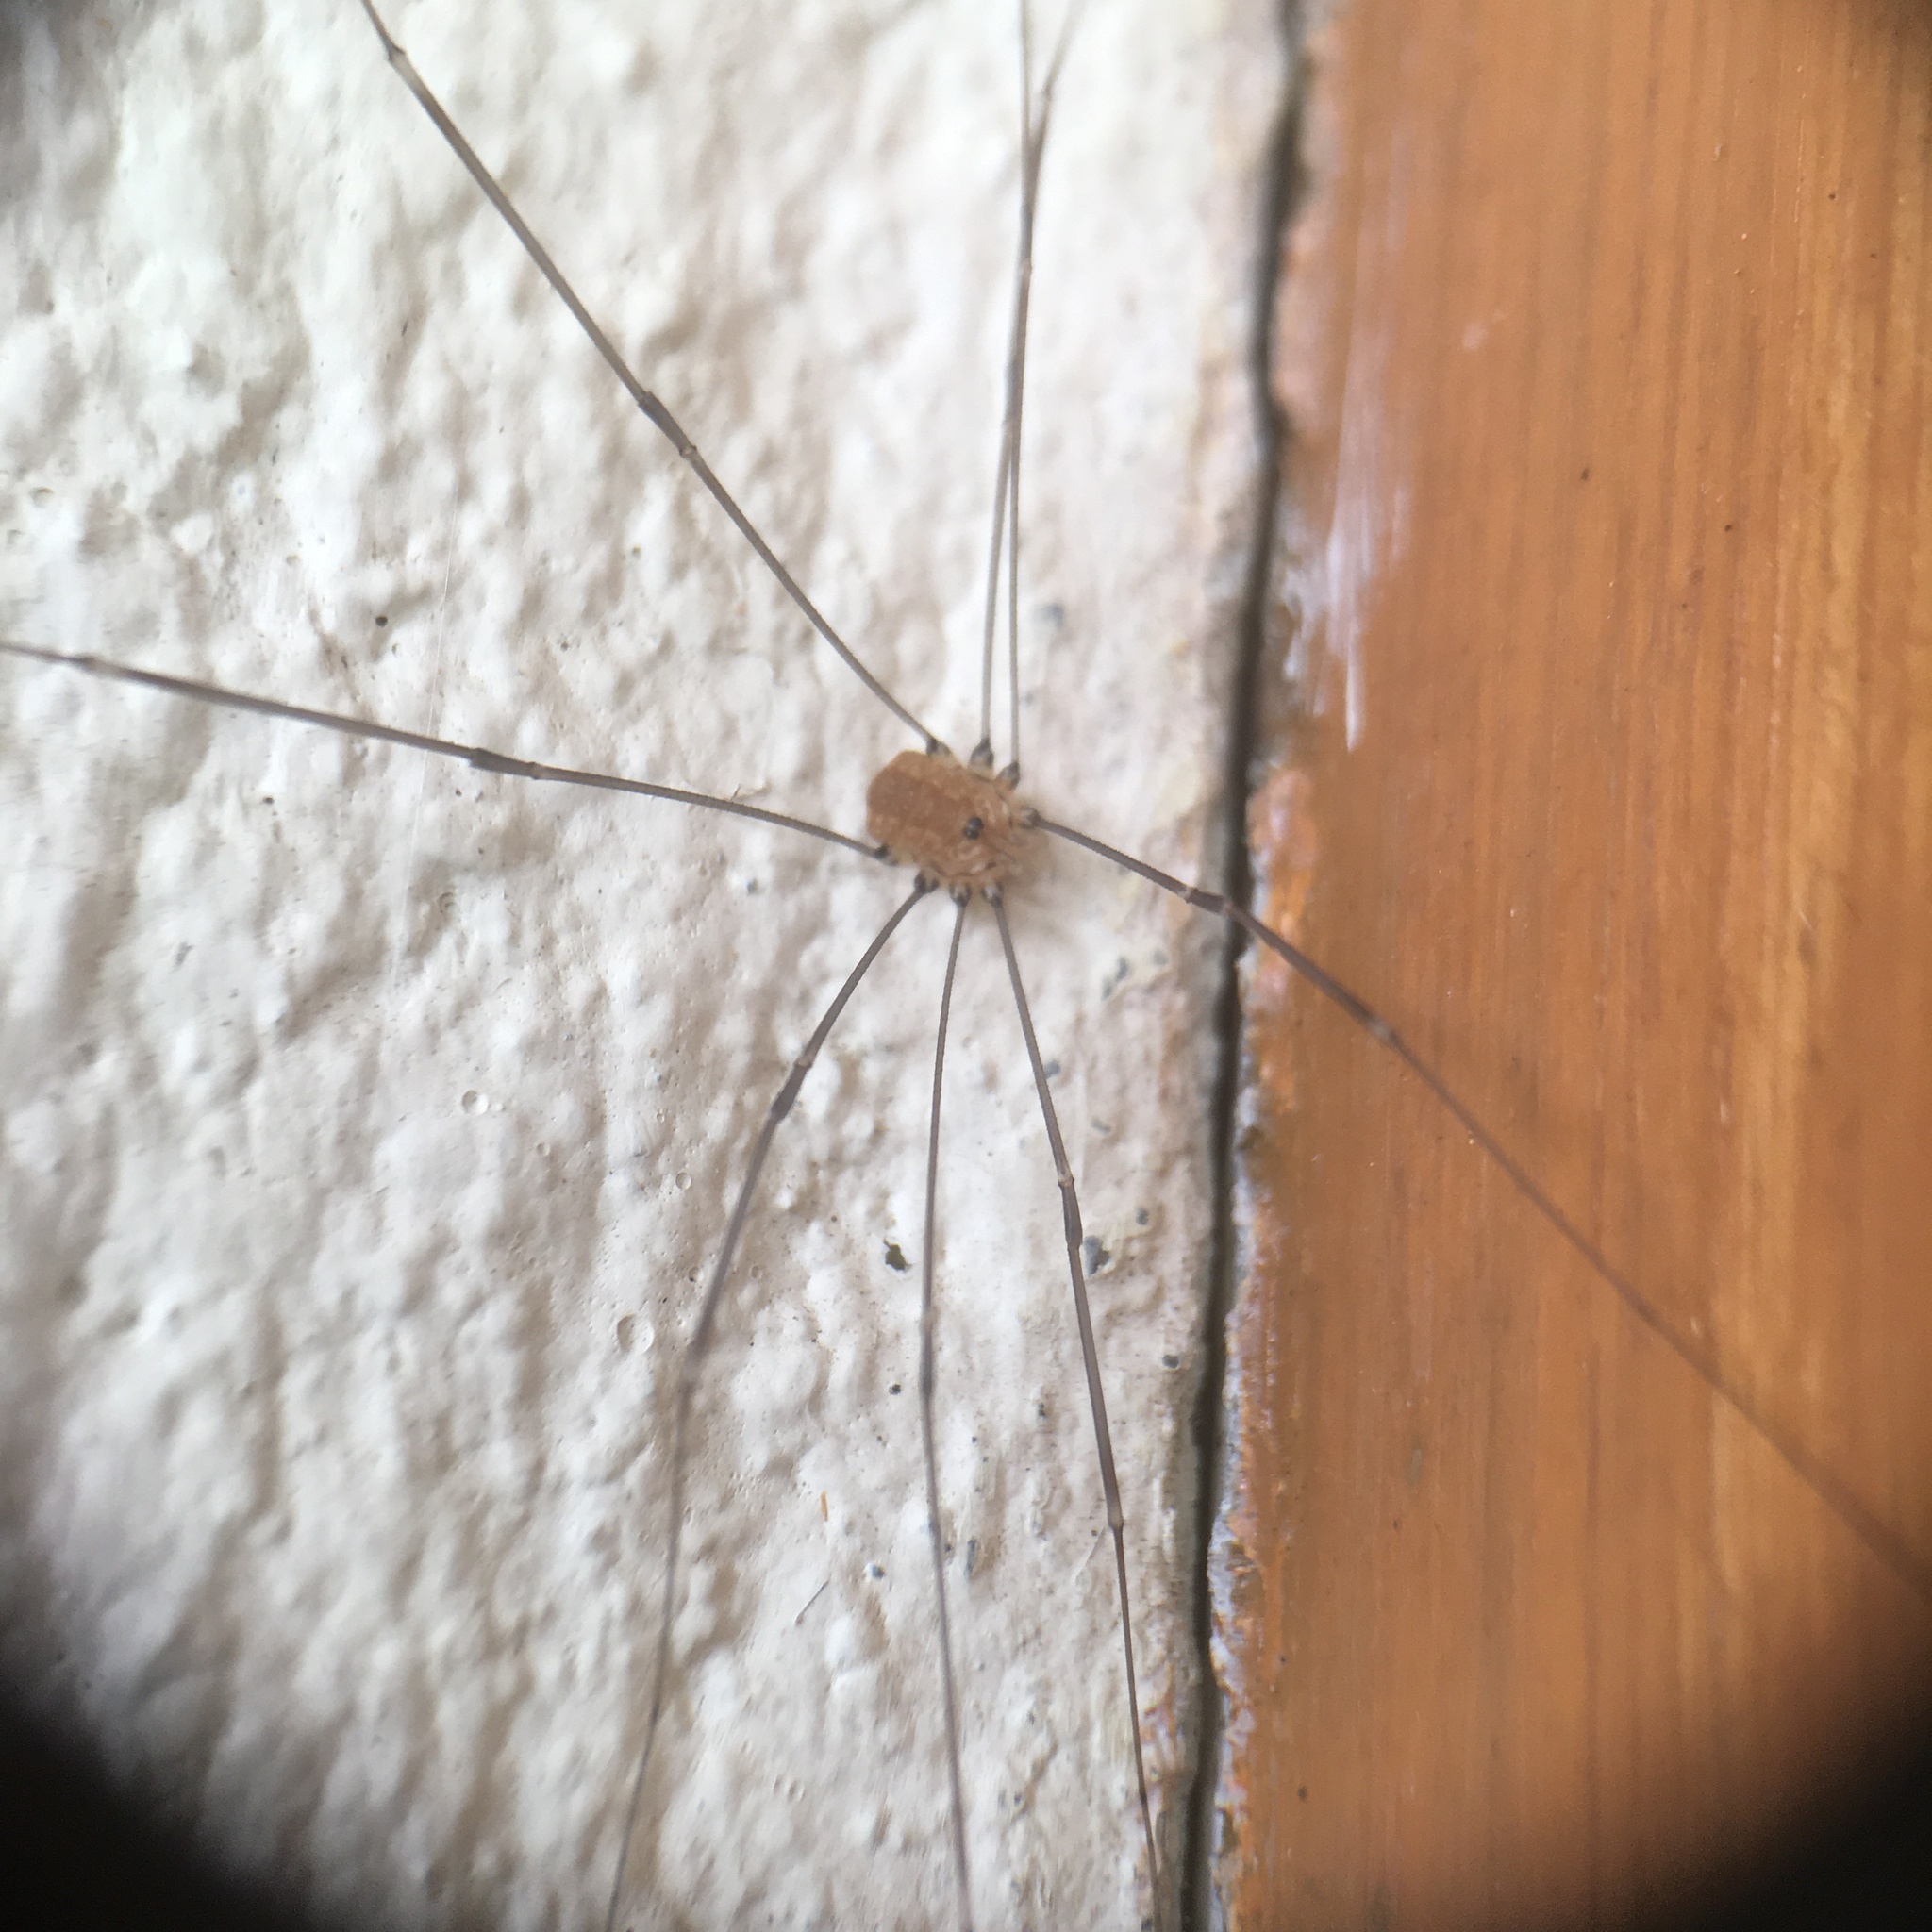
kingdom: Animalia
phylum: Arthropoda
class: Arachnida
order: Opiliones
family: Sclerosomatidae
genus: Leiobunum
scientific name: Leiobunum rotundum
